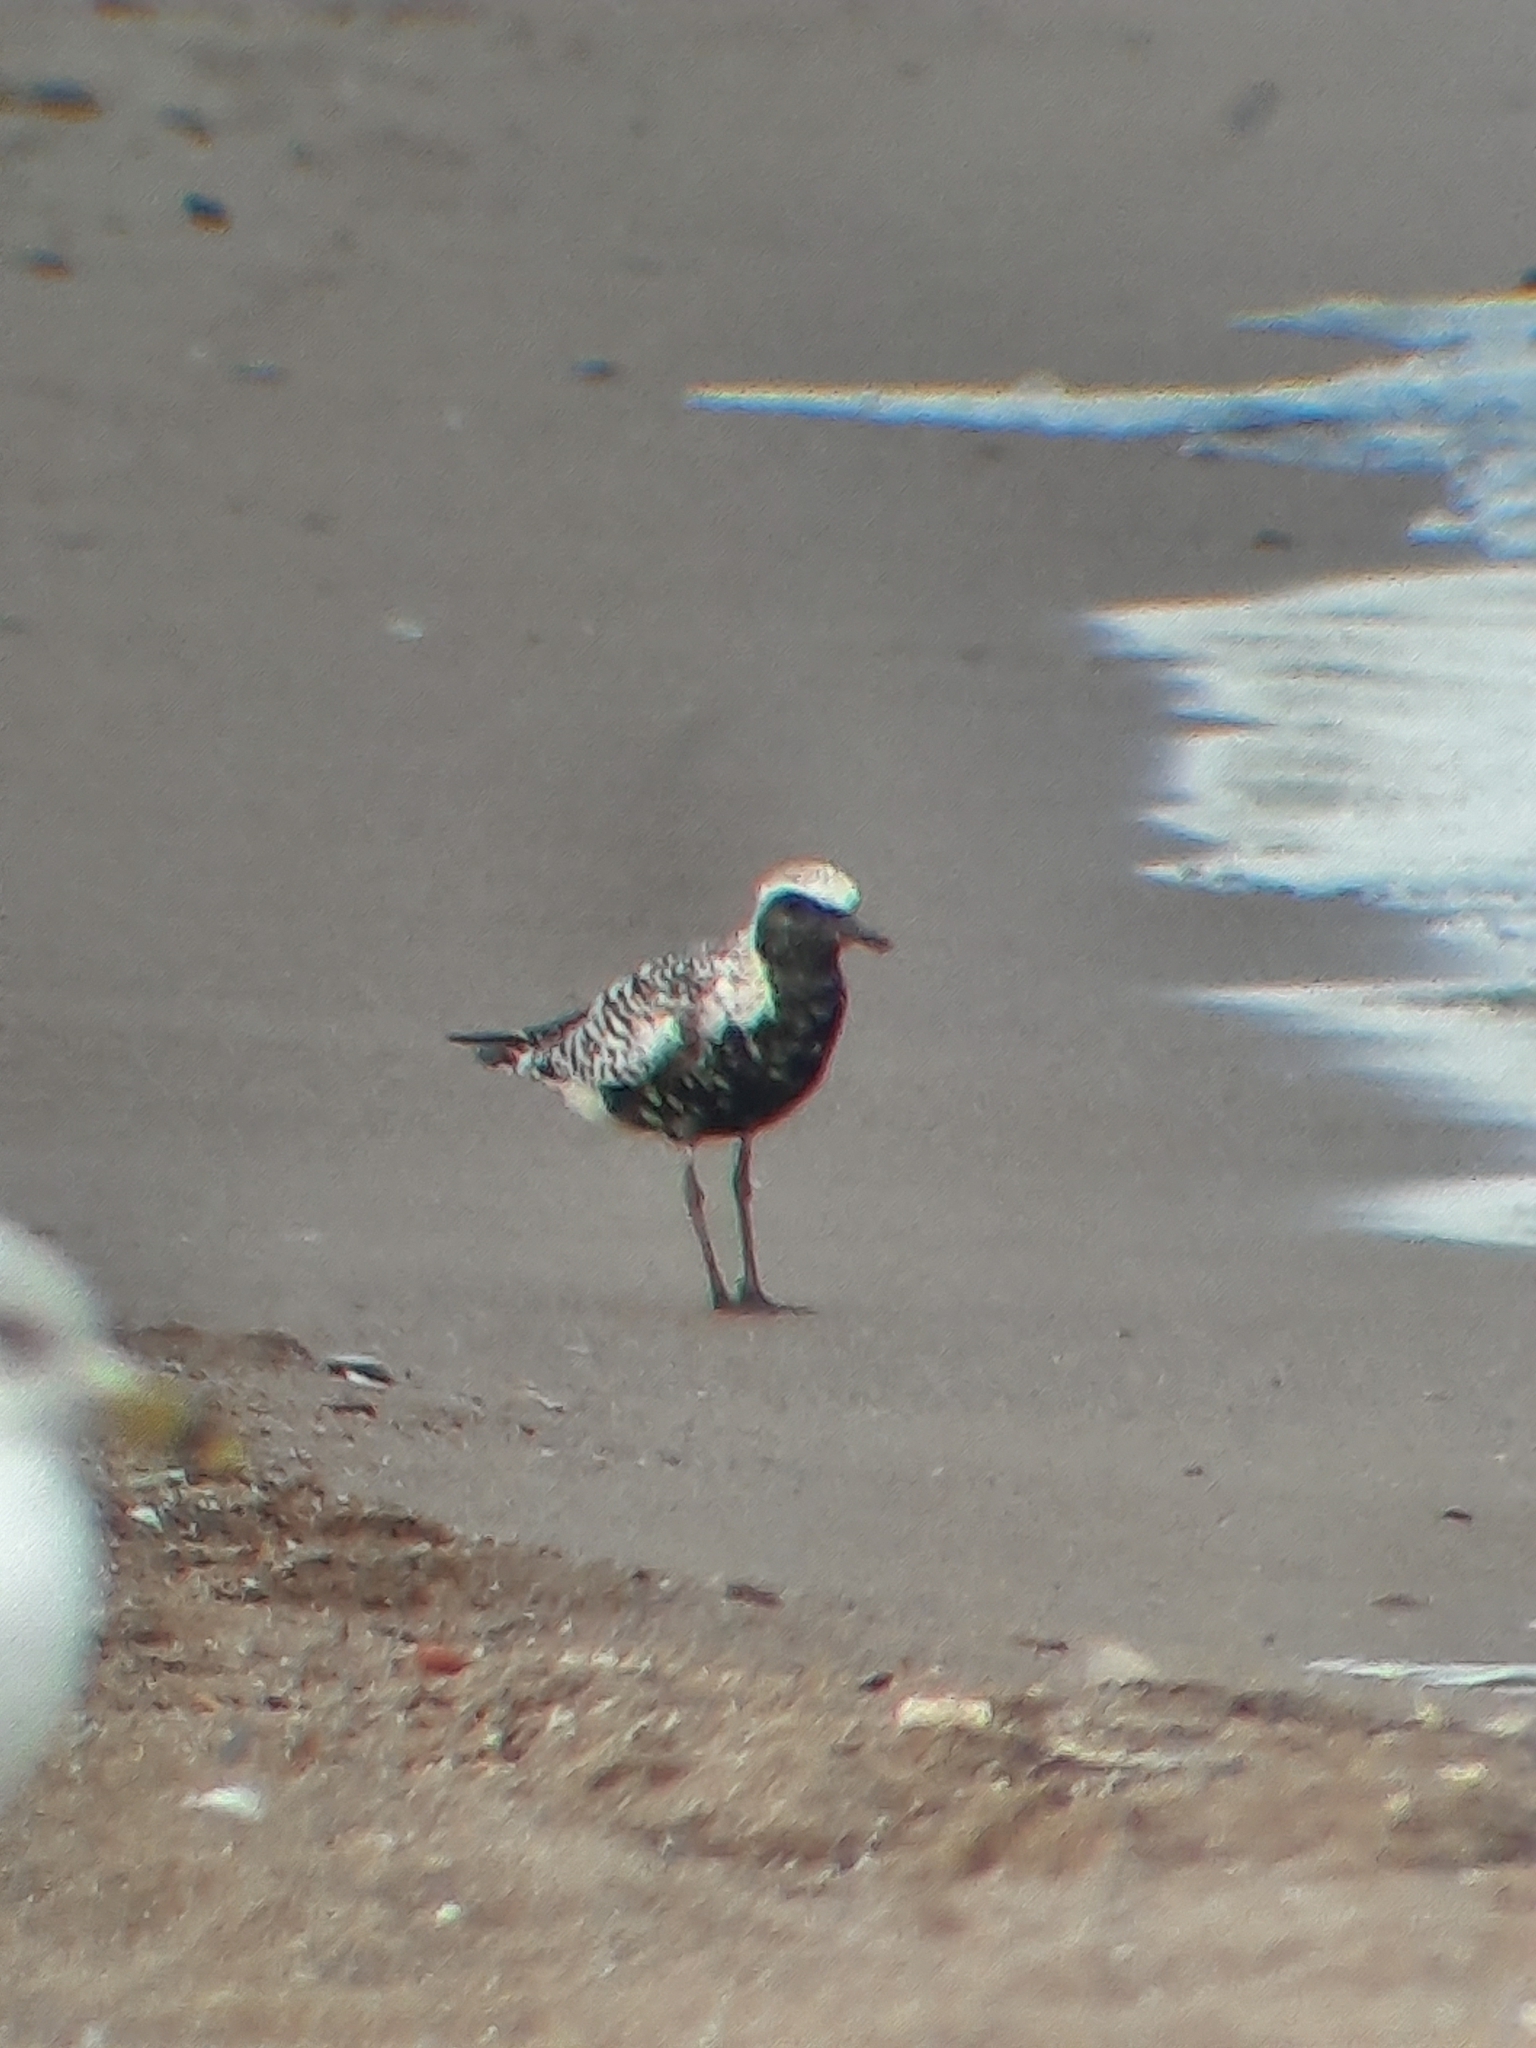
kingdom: Animalia
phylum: Chordata
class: Aves
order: Charadriiformes
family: Charadriidae
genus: Pluvialis
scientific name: Pluvialis squatarola
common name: Grey plover
